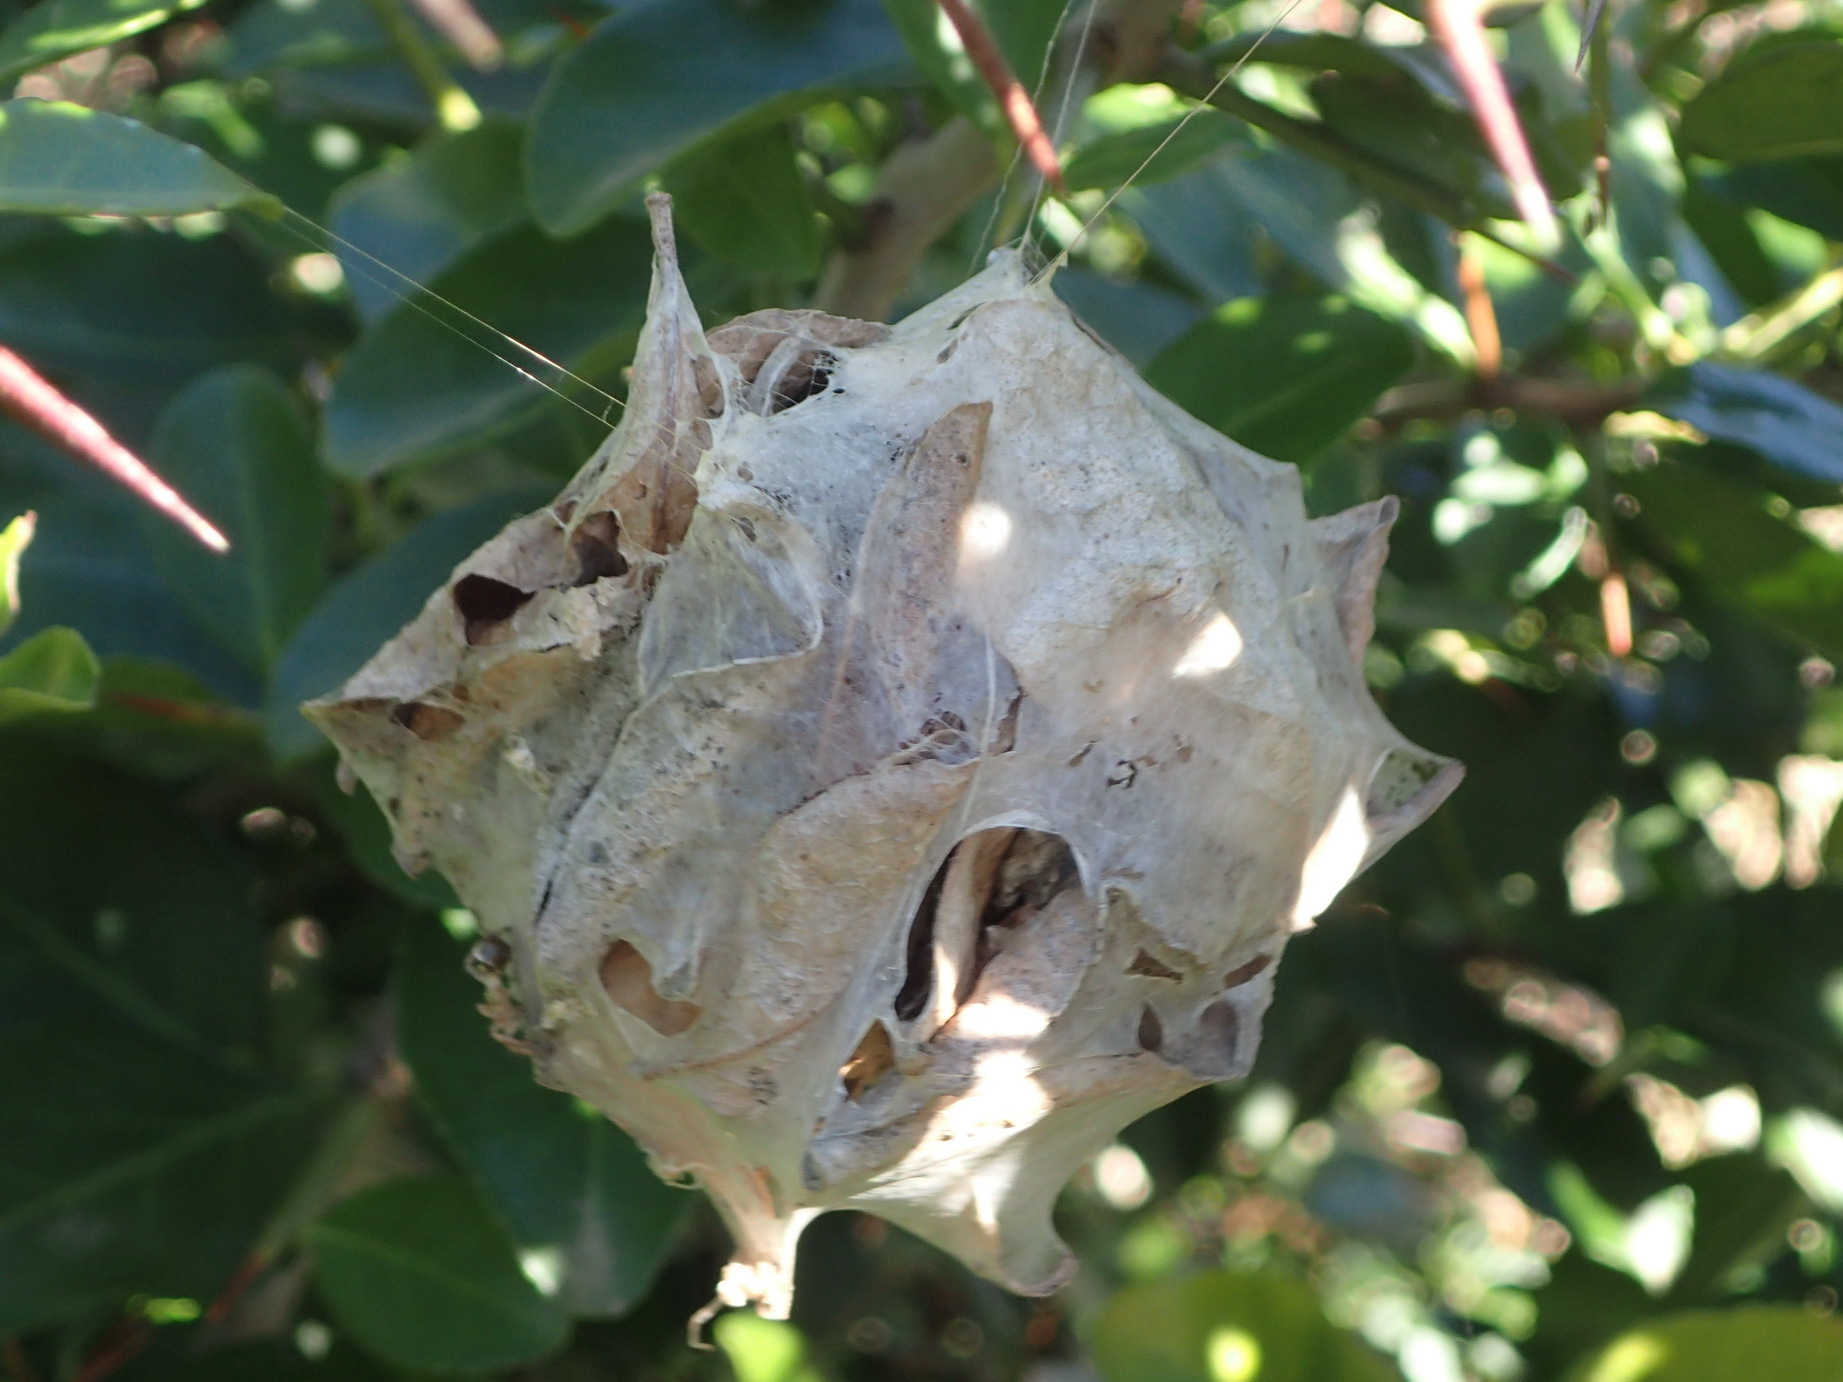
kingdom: Animalia
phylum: Arthropoda
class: Arachnida
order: Araneae
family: Sparassidae
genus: Palystes
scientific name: Palystes superciliosus
